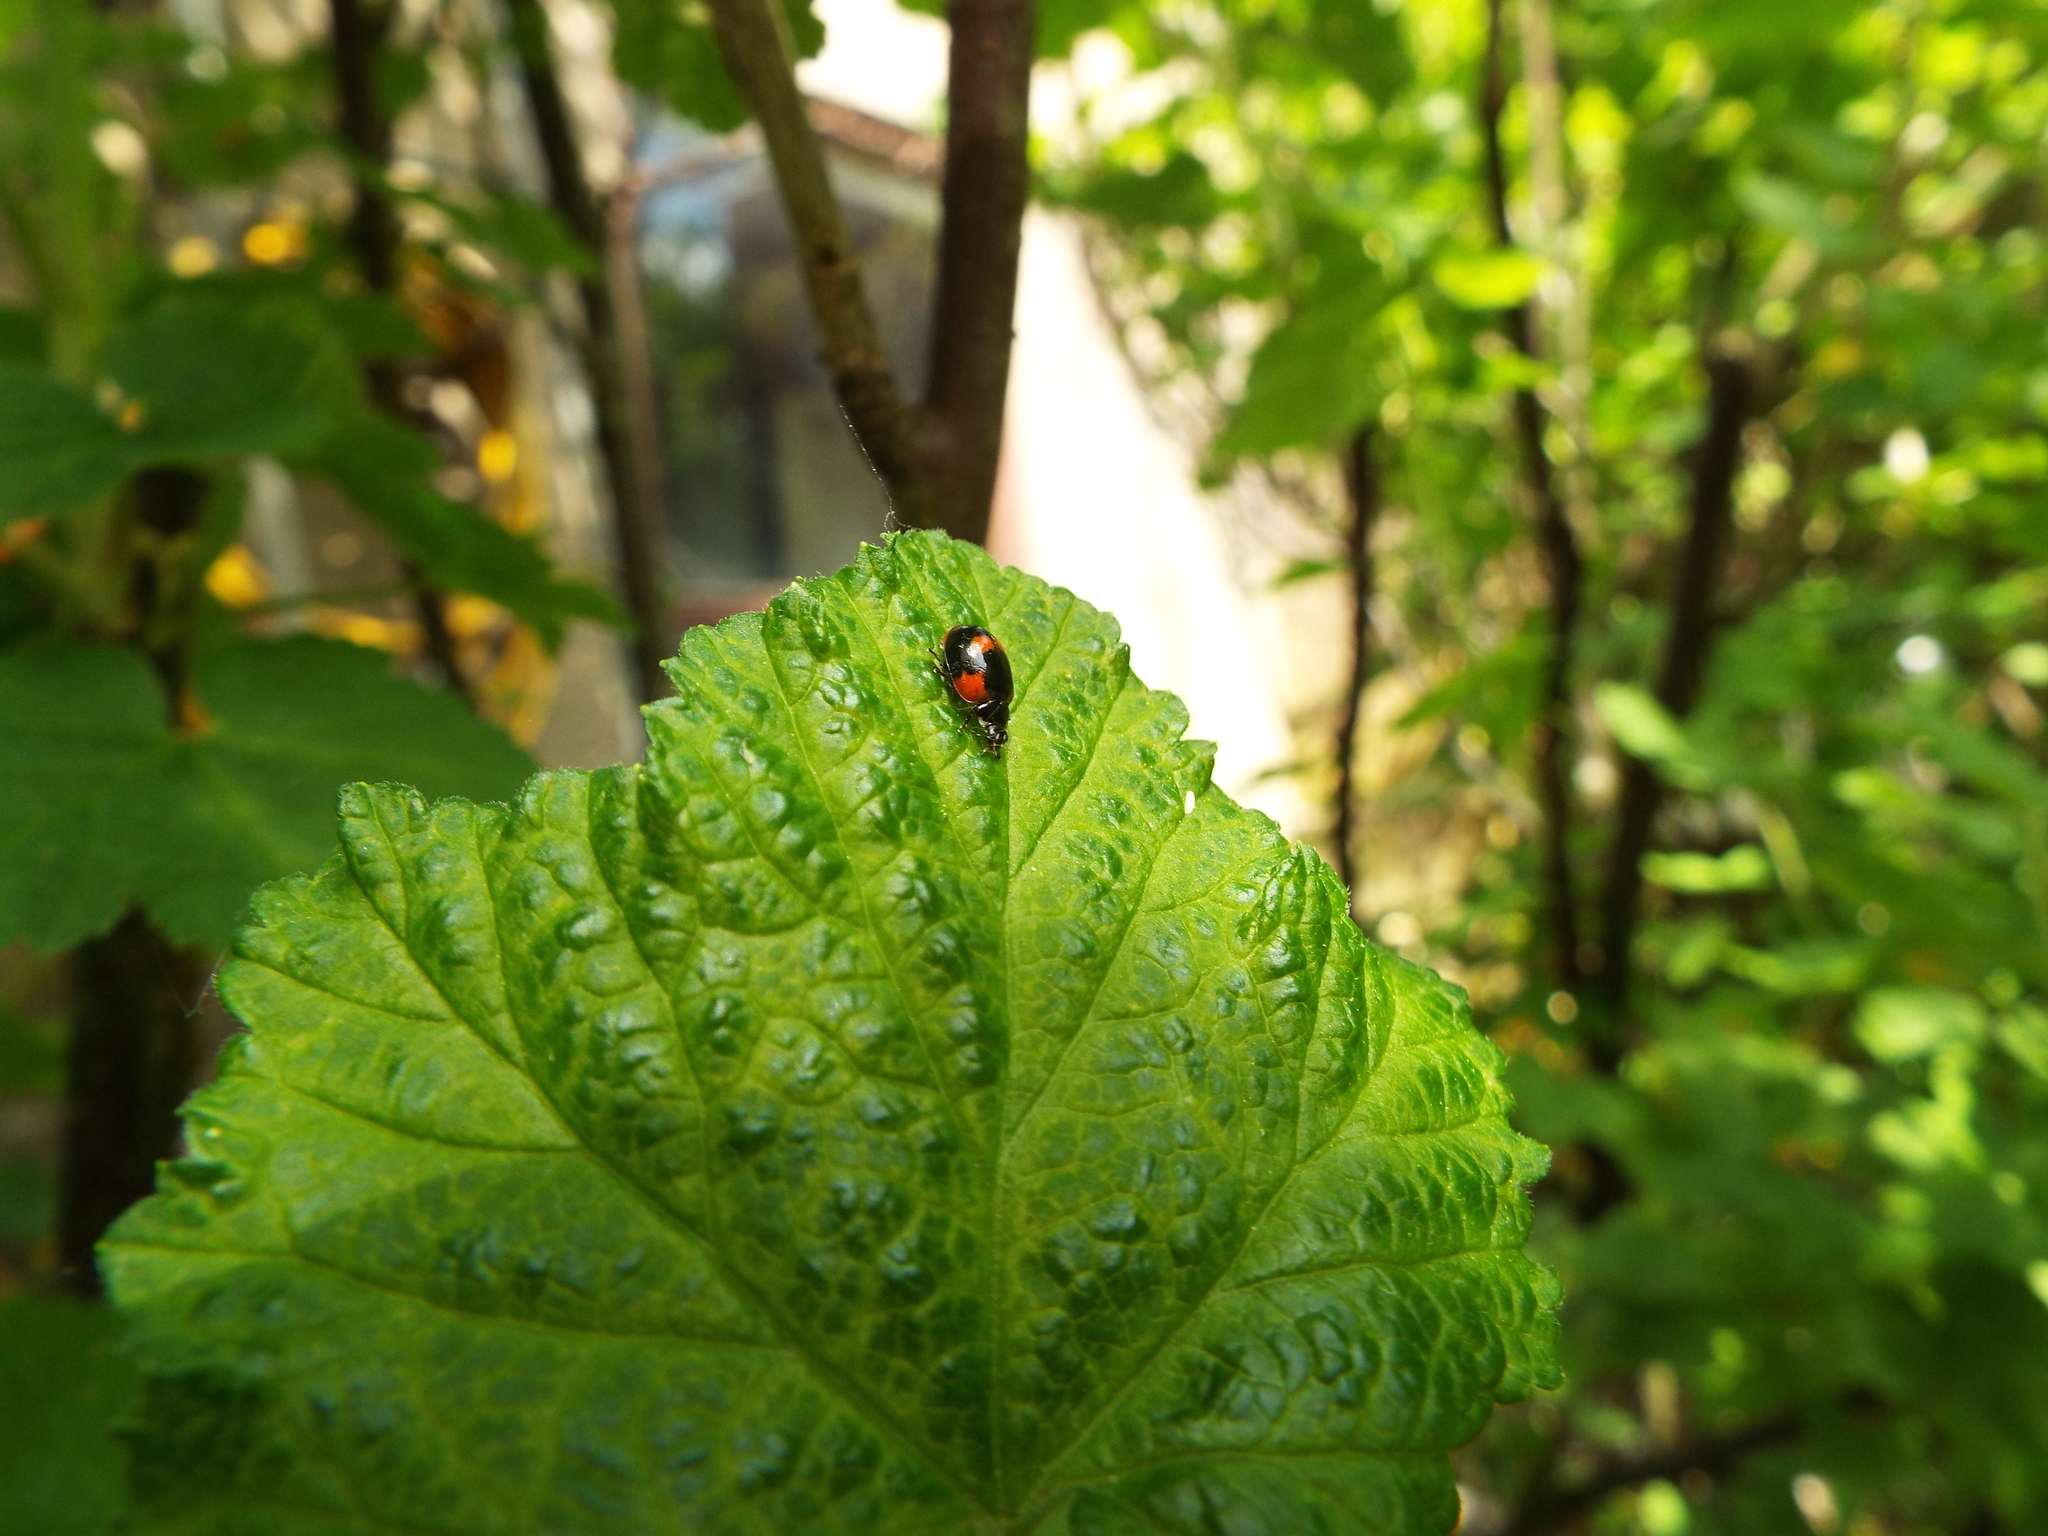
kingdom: Animalia
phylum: Arthropoda
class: Insecta
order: Coleoptera
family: Coccinellidae
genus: Adalia
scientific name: Adalia bipunctata
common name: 2-spot ladybird
